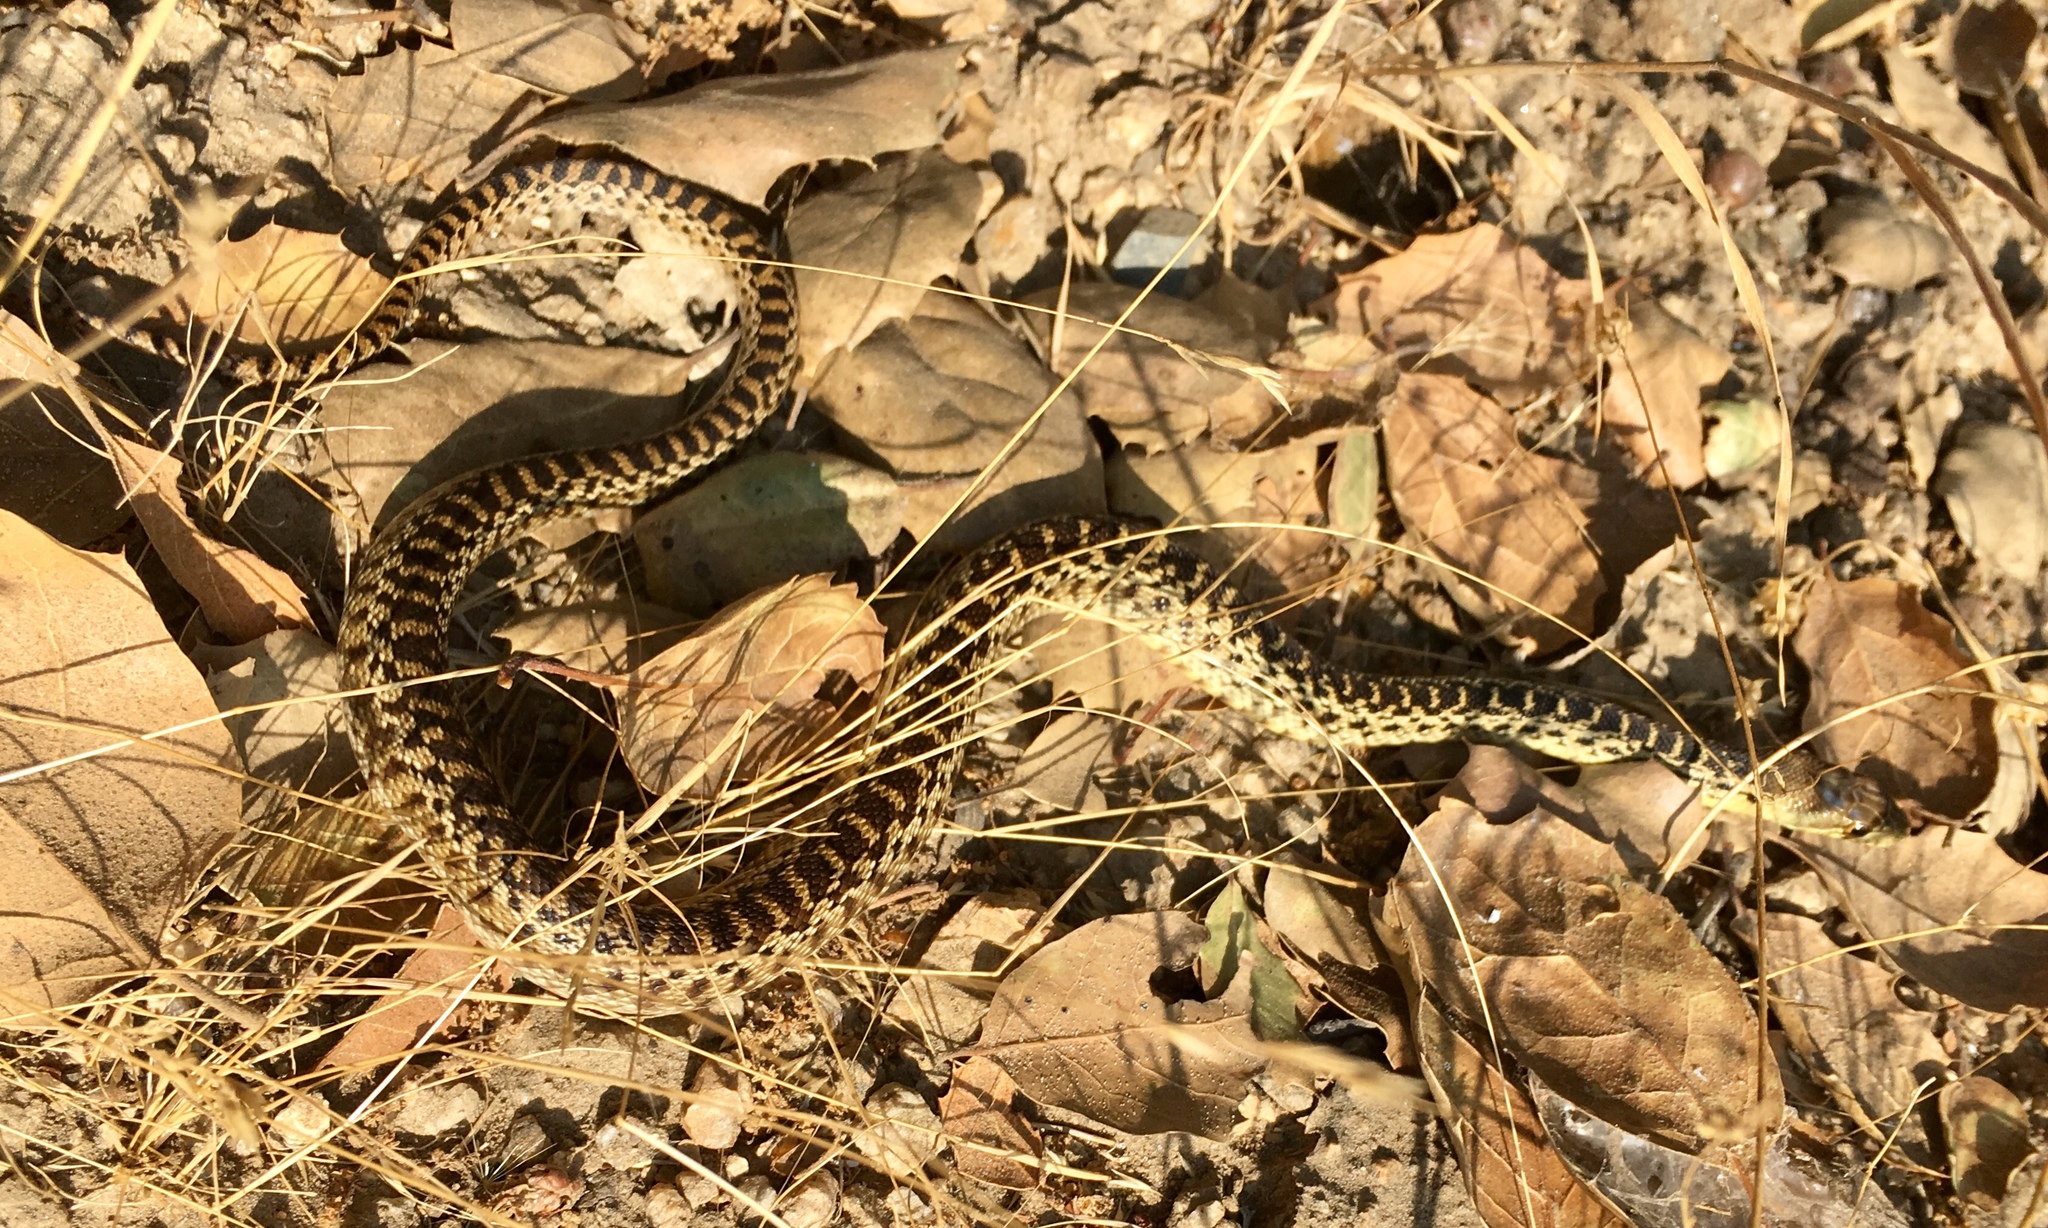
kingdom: Animalia
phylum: Chordata
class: Squamata
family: Colubridae
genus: Pituophis
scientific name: Pituophis catenifer
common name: Gopher snake
